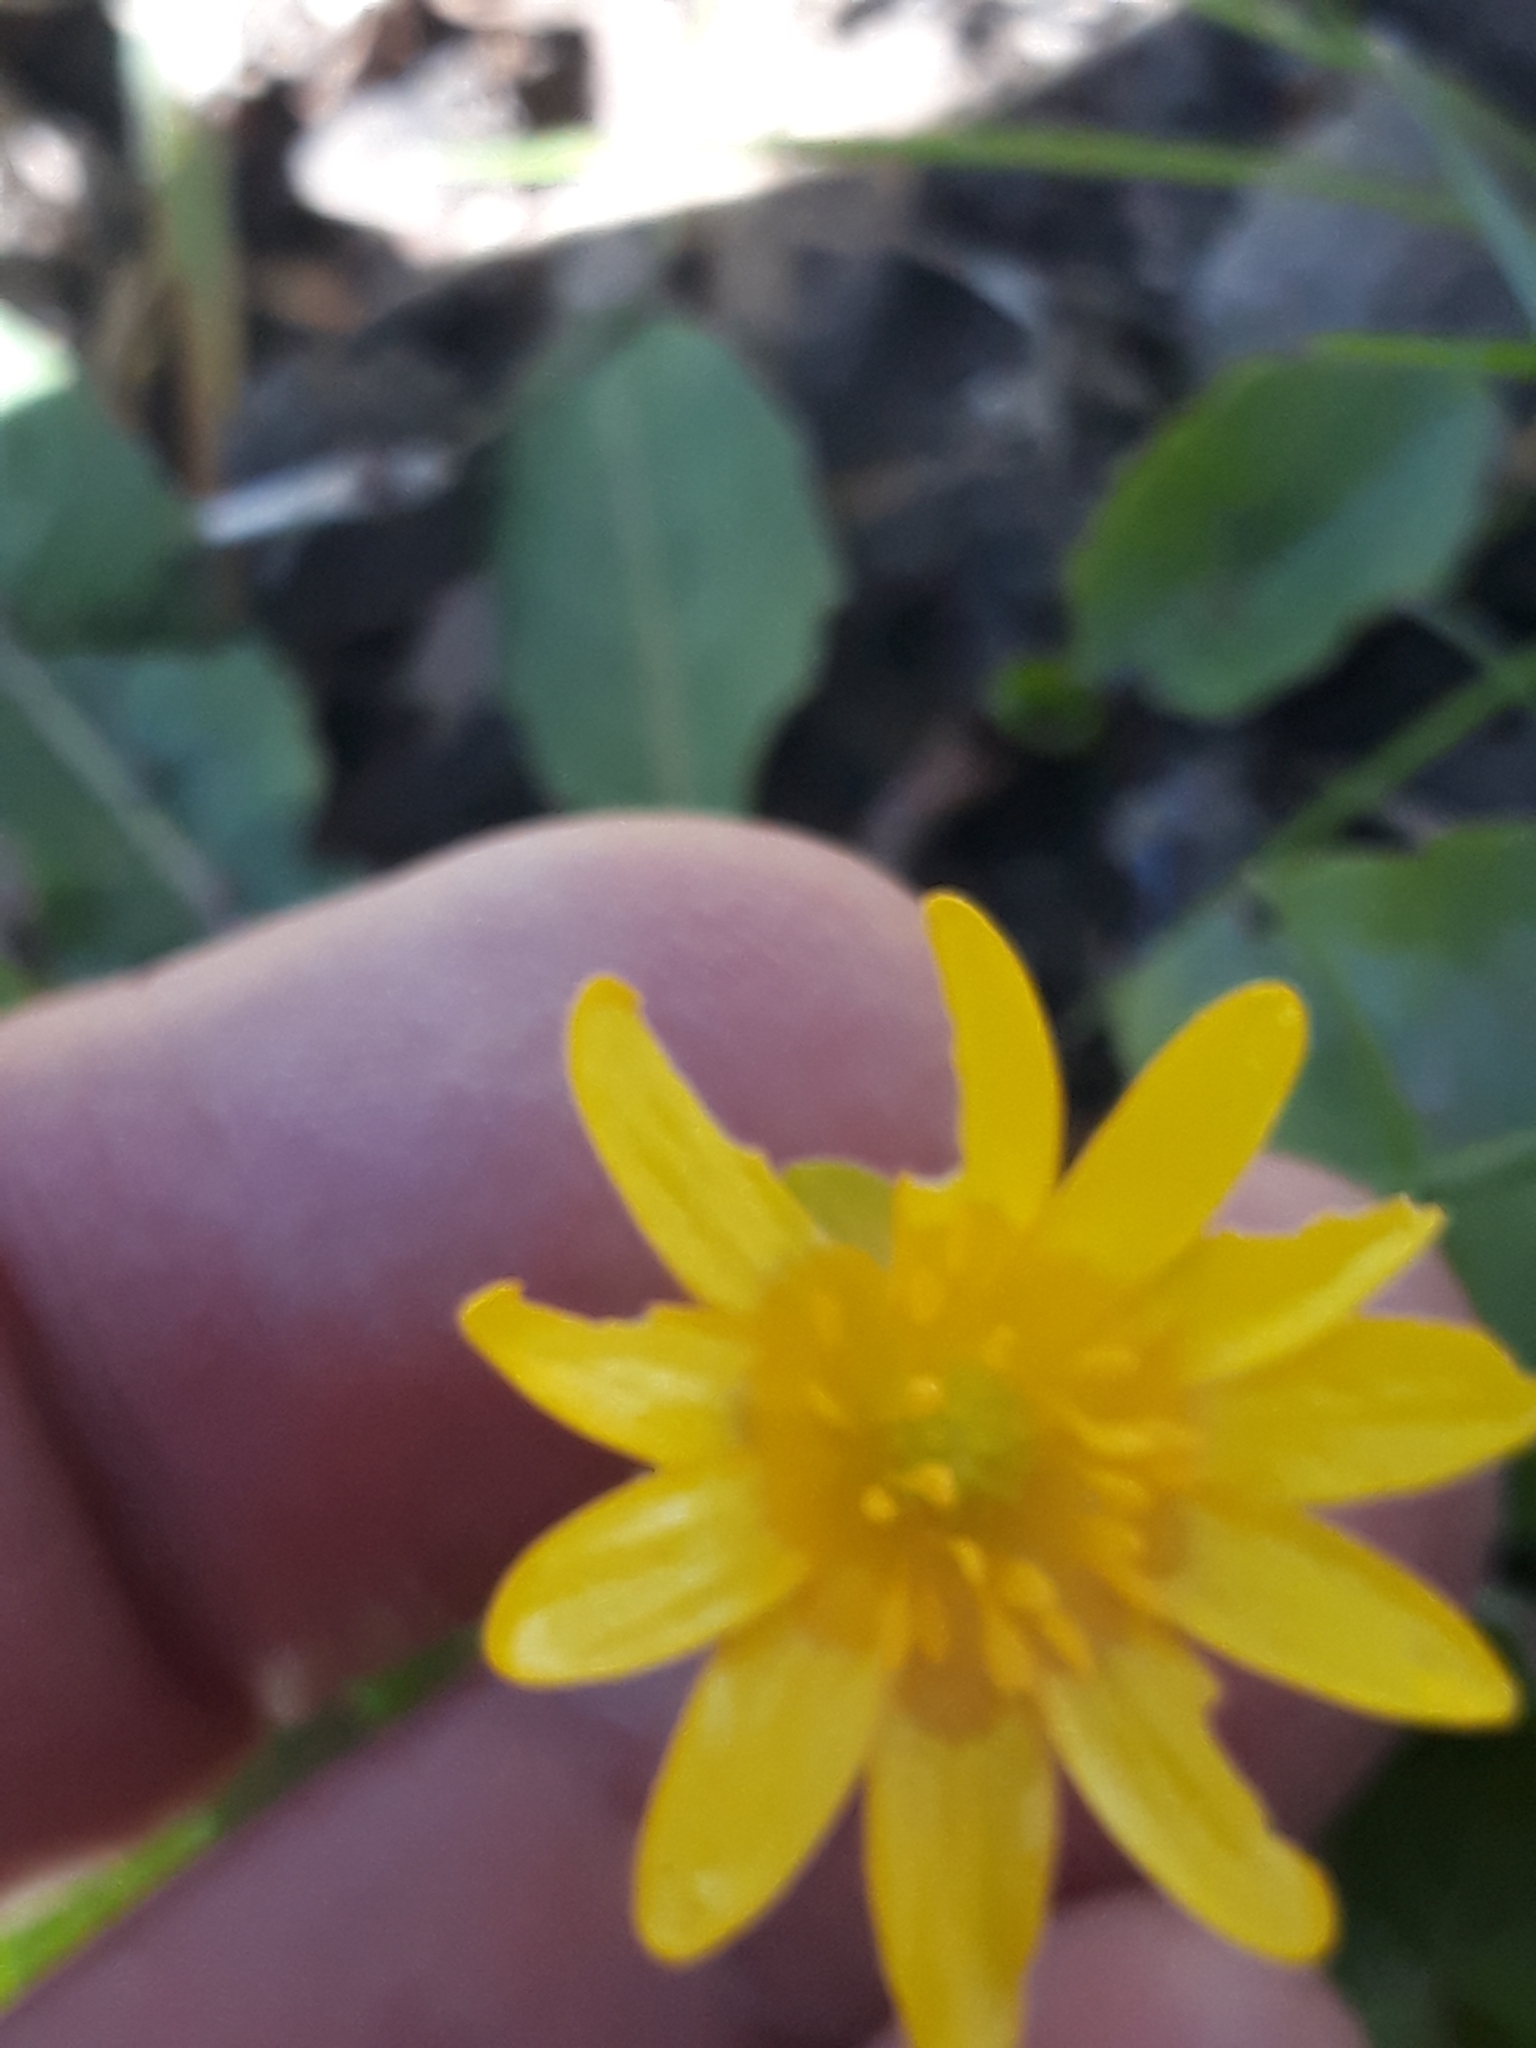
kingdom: Plantae
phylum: Tracheophyta
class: Magnoliopsida
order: Ranunculales
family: Ranunculaceae
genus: Ficaria
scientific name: Ficaria verna
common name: Lesser celandine
